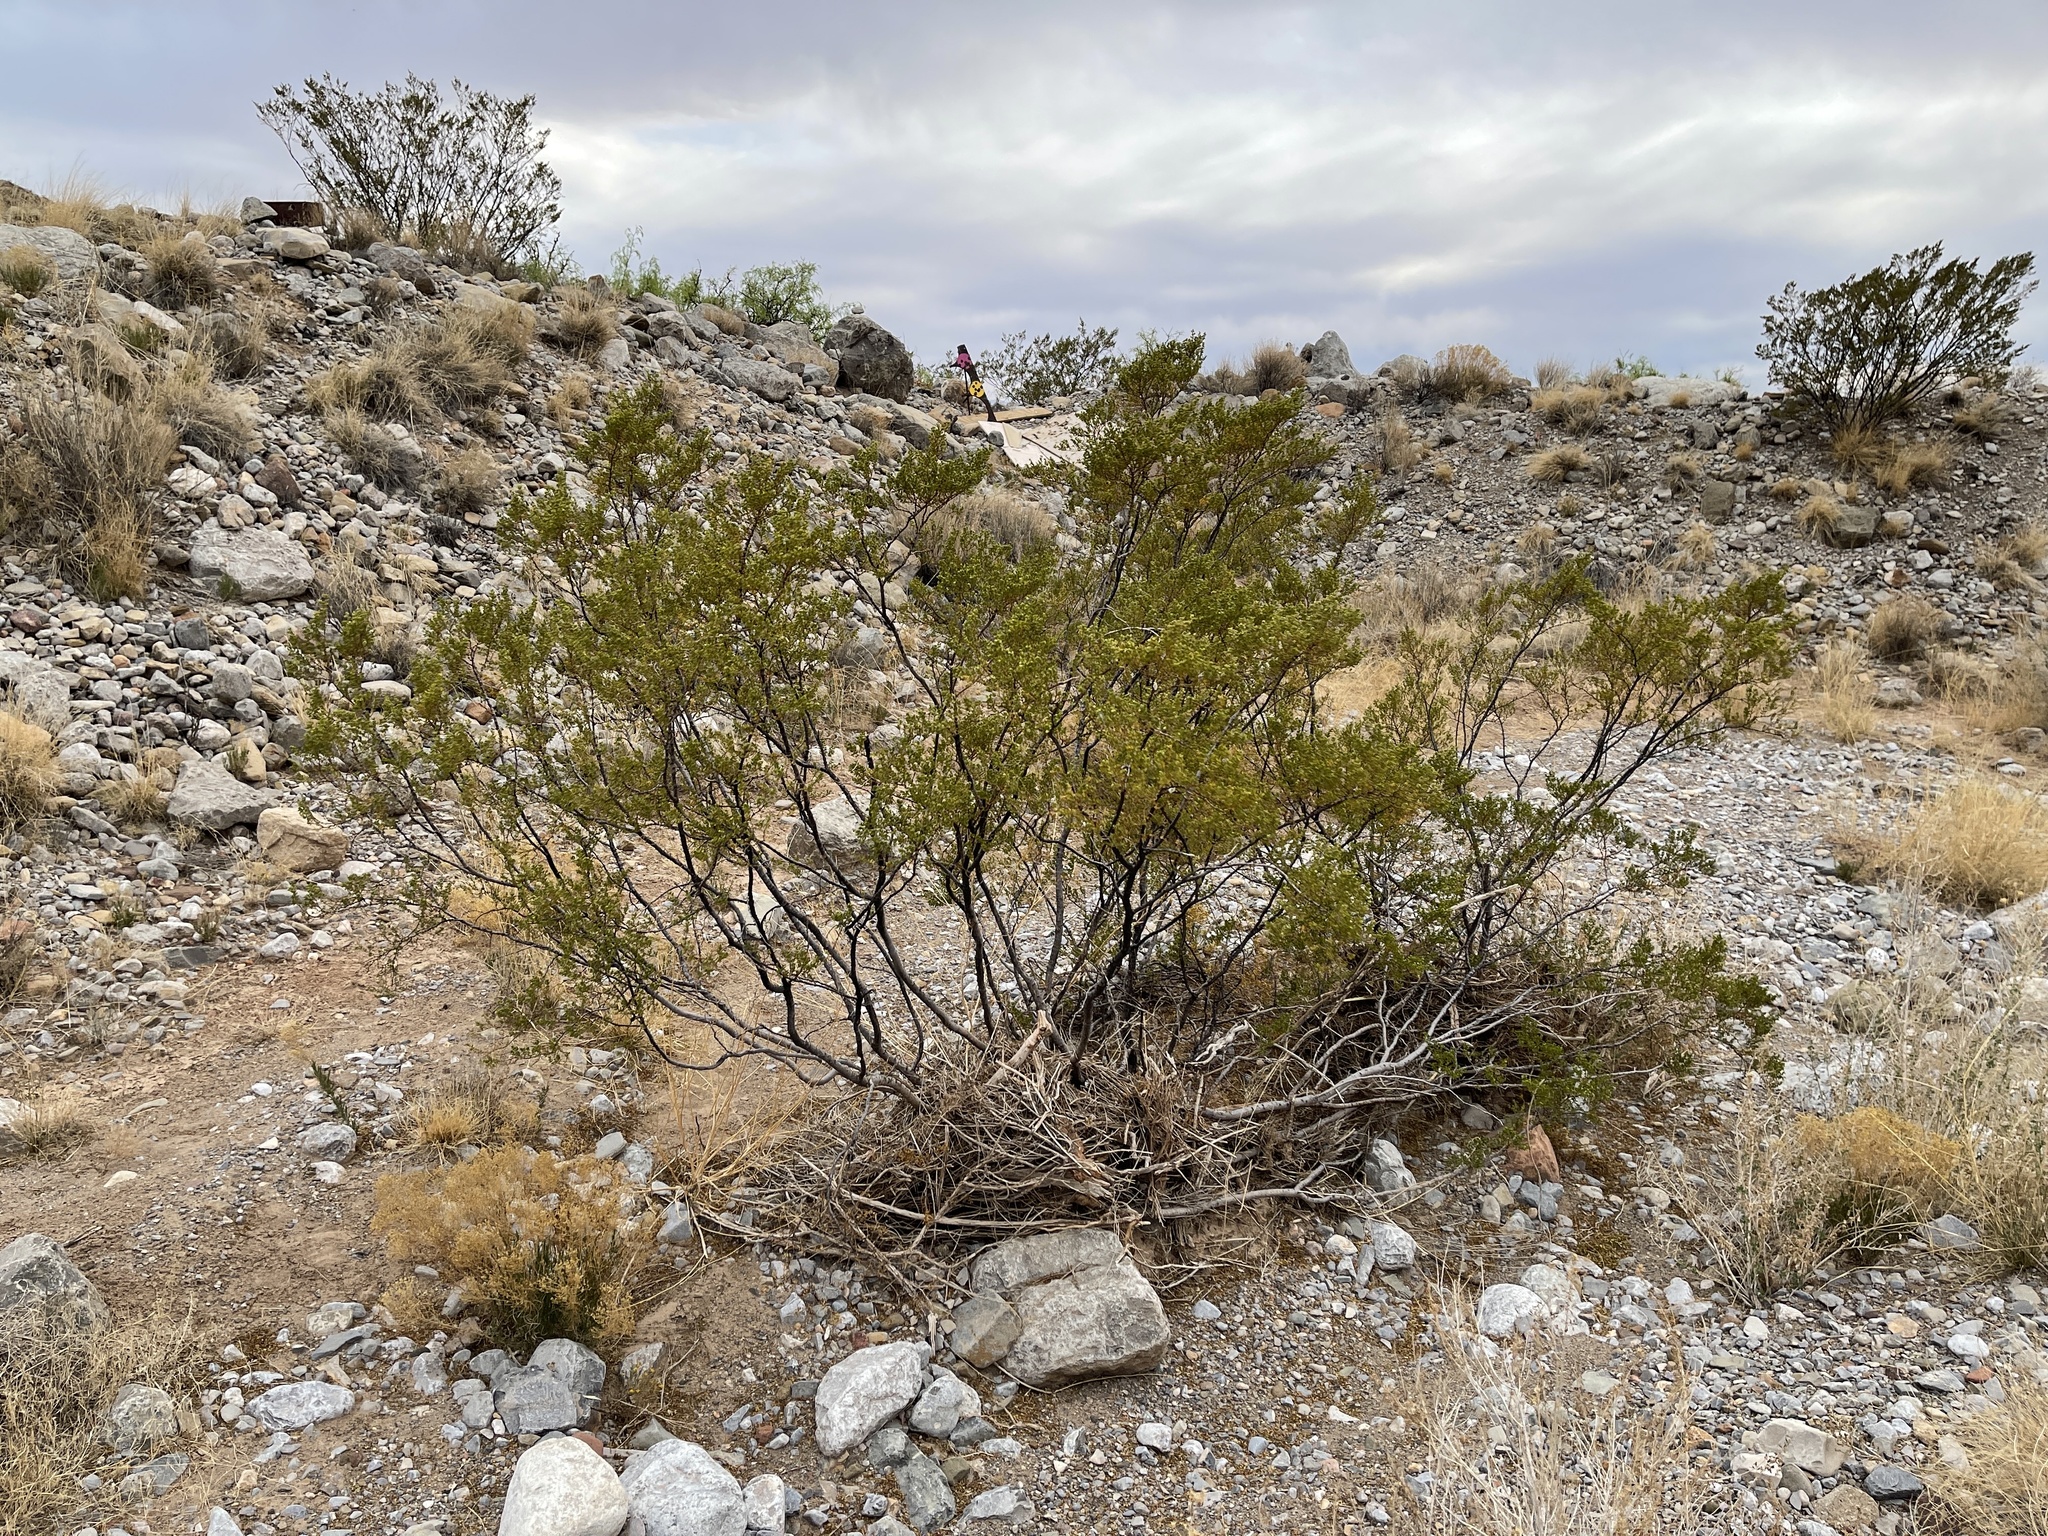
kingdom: Plantae
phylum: Tracheophyta
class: Magnoliopsida
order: Zygophyllales
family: Zygophyllaceae
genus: Larrea
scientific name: Larrea tridentata
